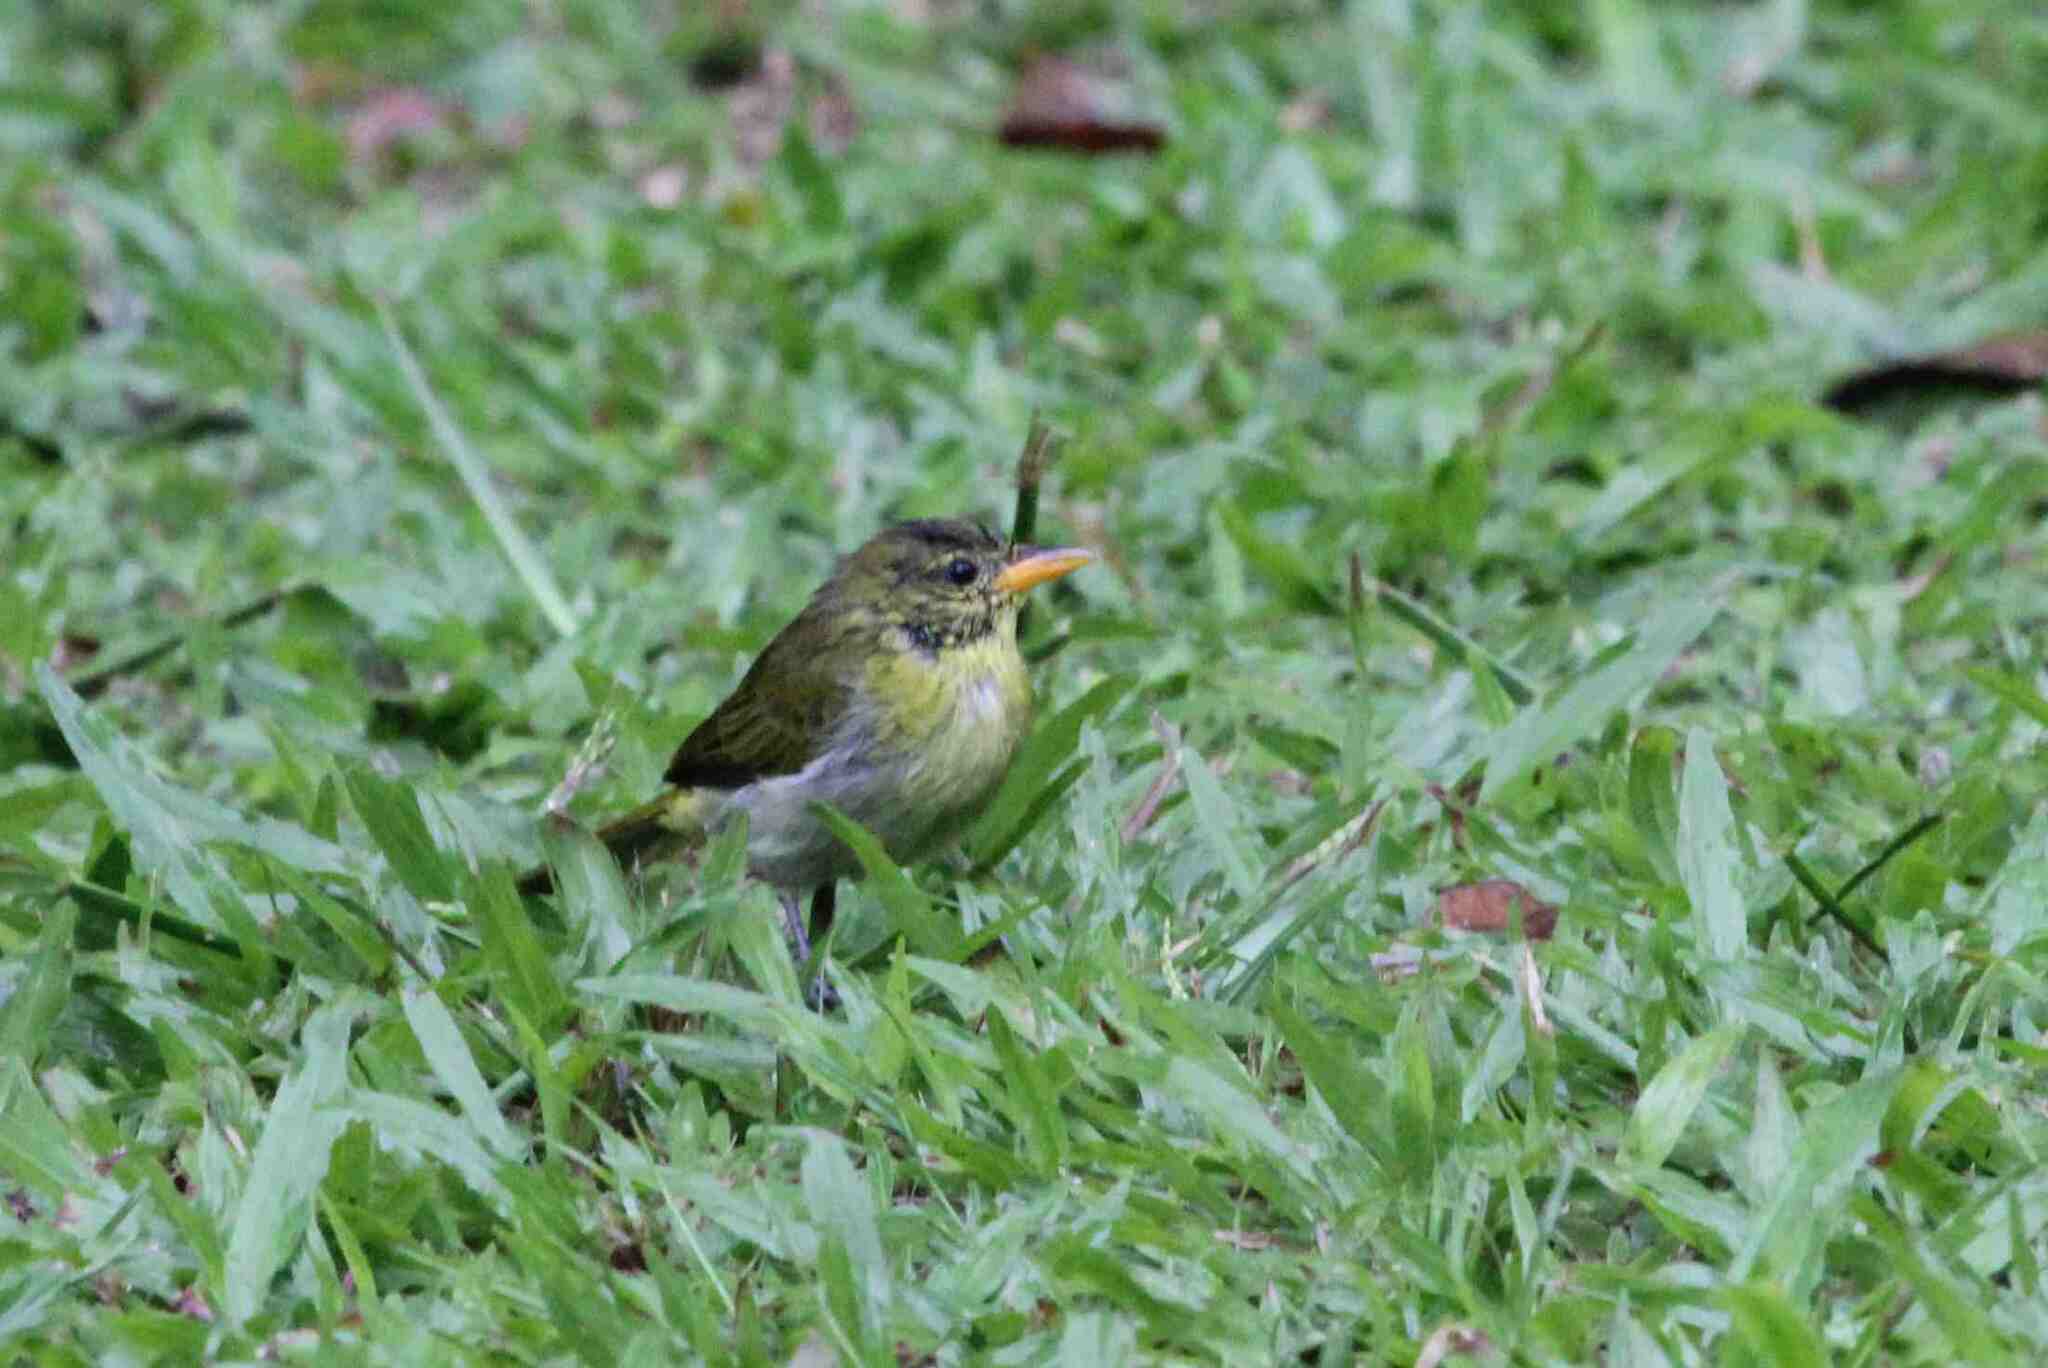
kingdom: Animalia
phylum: Chordata
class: Aves
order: Passeriformes
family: Thraupidae
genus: Hemithraupis
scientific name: Hemithraupis guira
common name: Guira tanager
